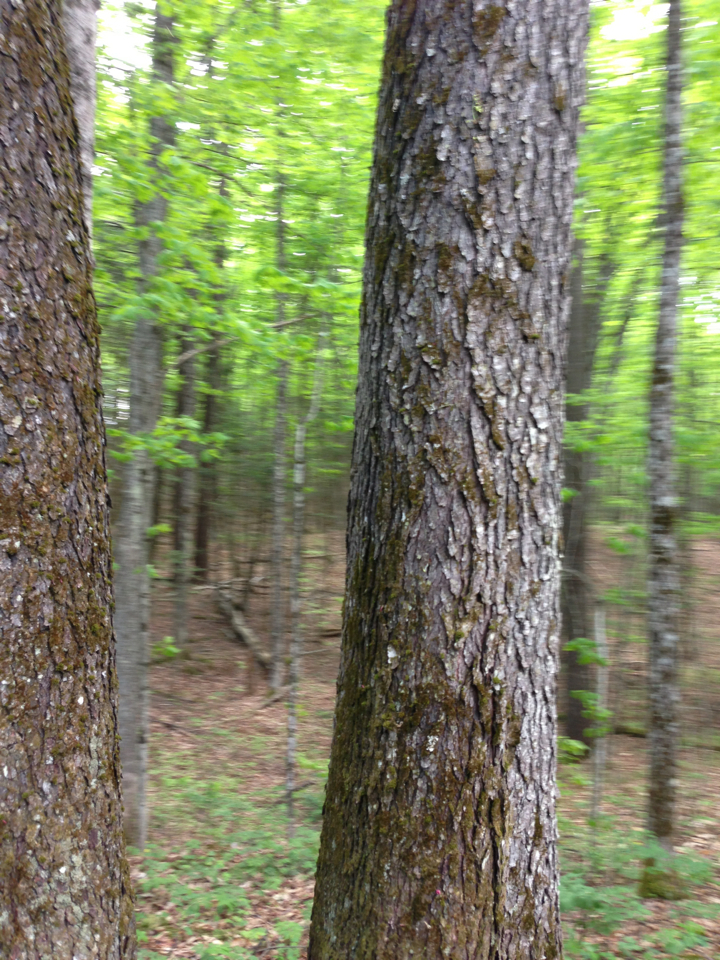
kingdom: Plantae
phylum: Tracheophyta
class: Magnoliopsida
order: Rosales
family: Rosaceae
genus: Prunus
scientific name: Prunus serotina
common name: Black cherry
